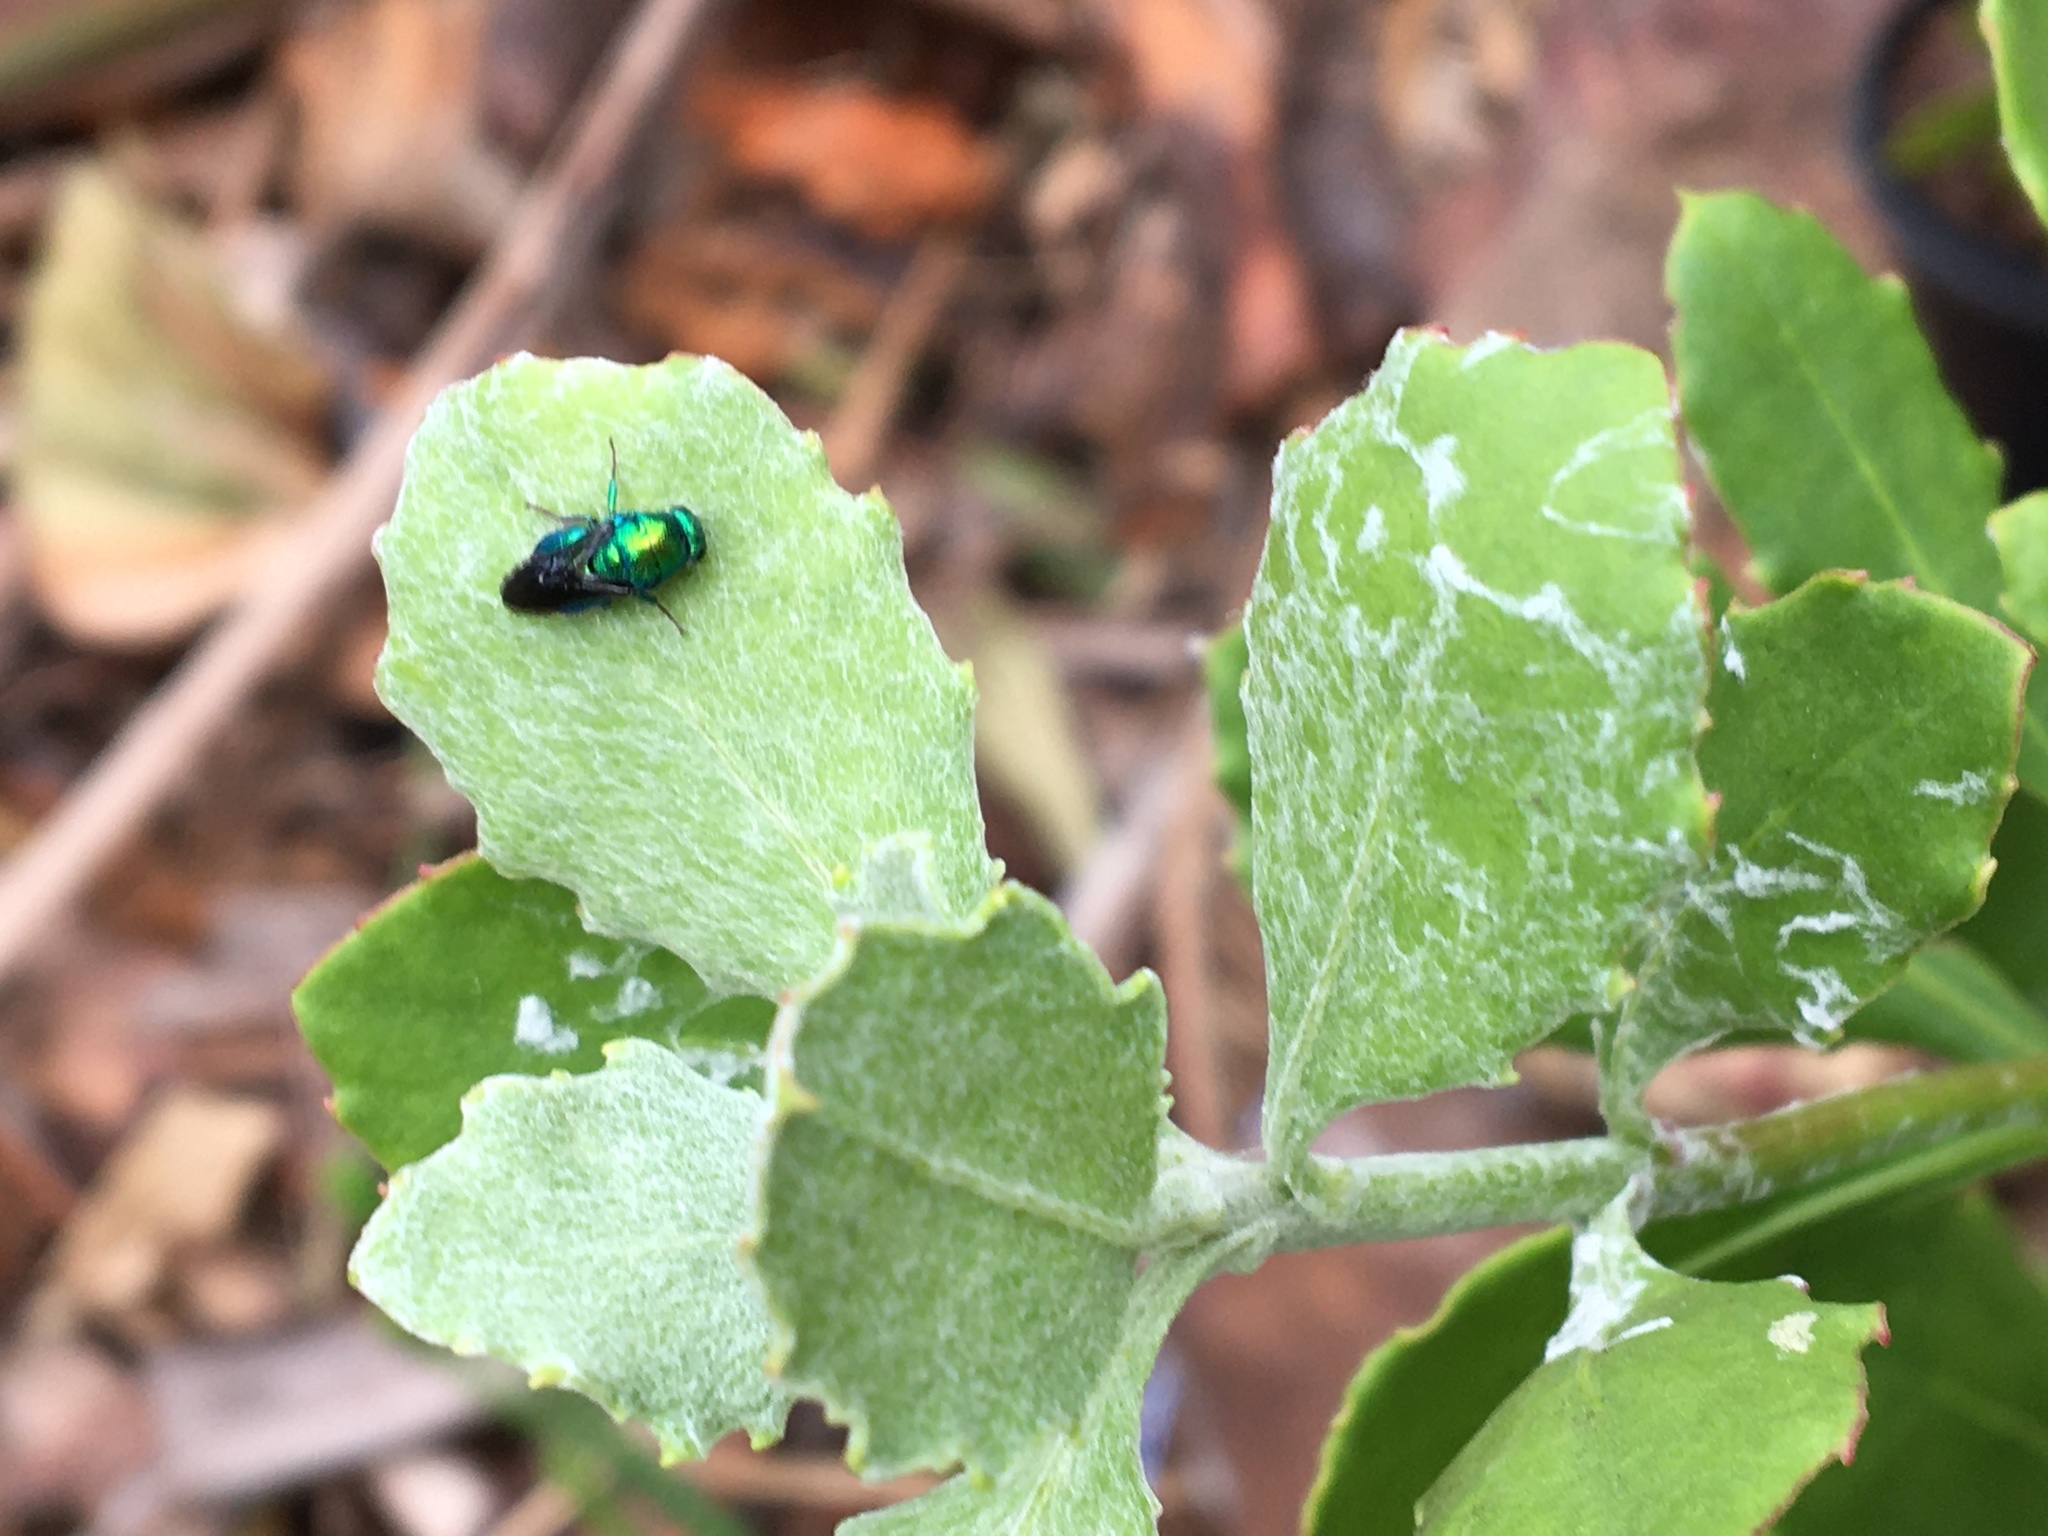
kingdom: Animalia
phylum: Arthropoda
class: Insecta
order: Hymenoptera
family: Chrysididae
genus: Hedychrum
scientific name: Hedychrum
